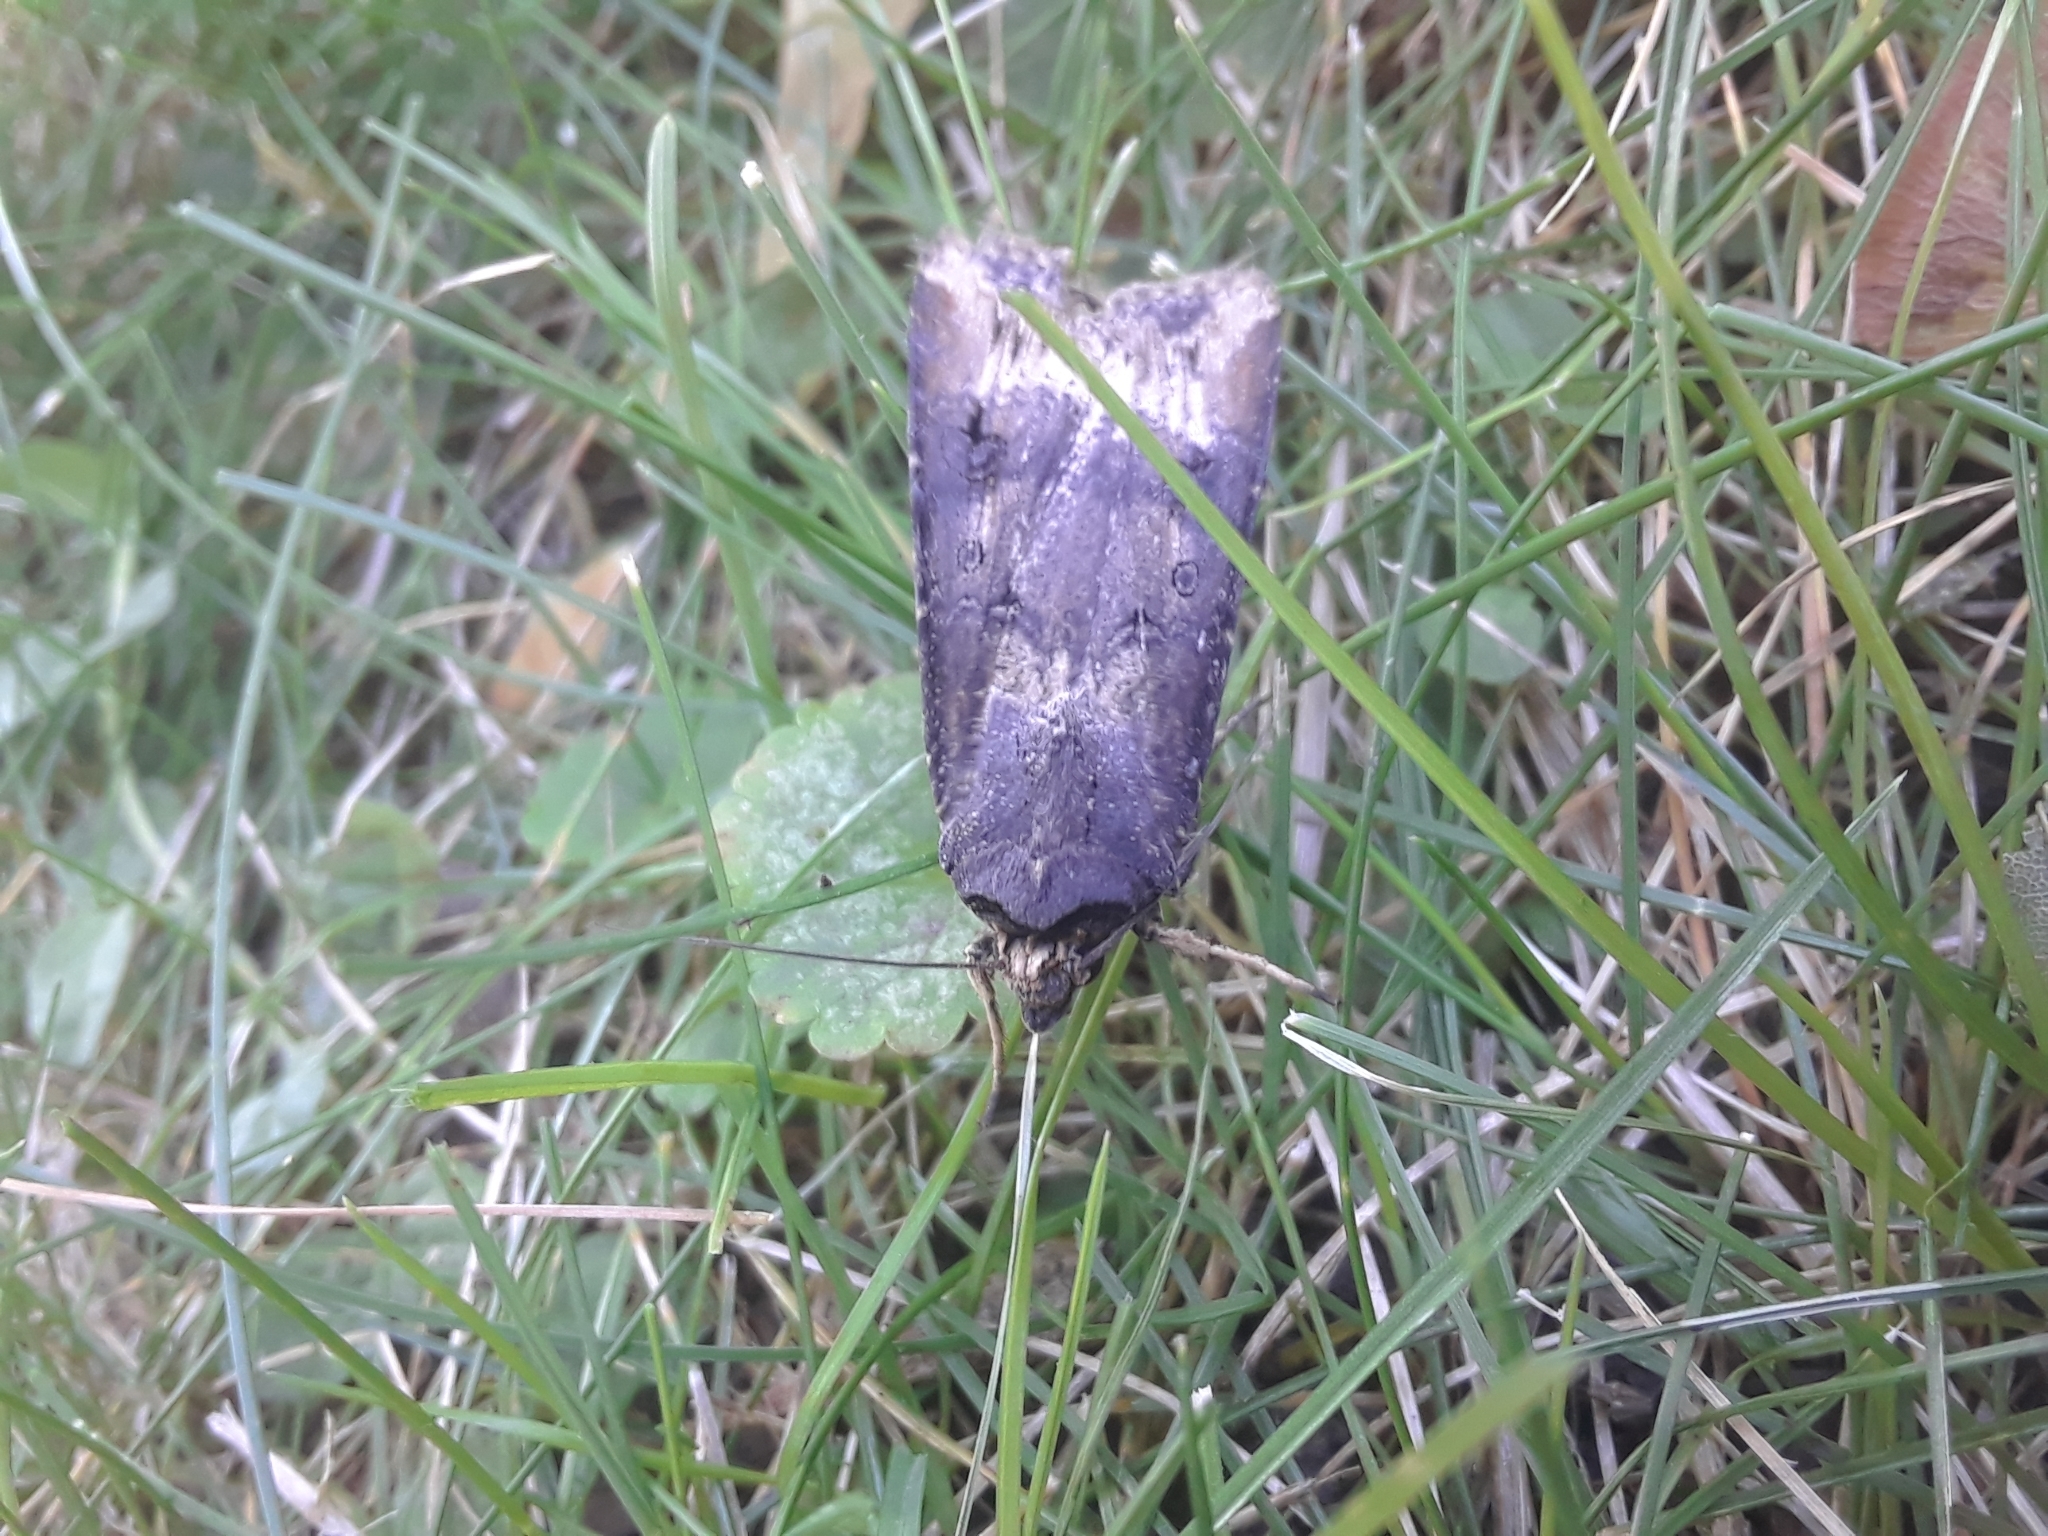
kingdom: Animalia
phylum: Arthropoda
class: Insecta
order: Lepidoptera
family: Noctuidae
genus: Agrotis
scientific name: Agrotis ipsilon
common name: Dark sword-grass
